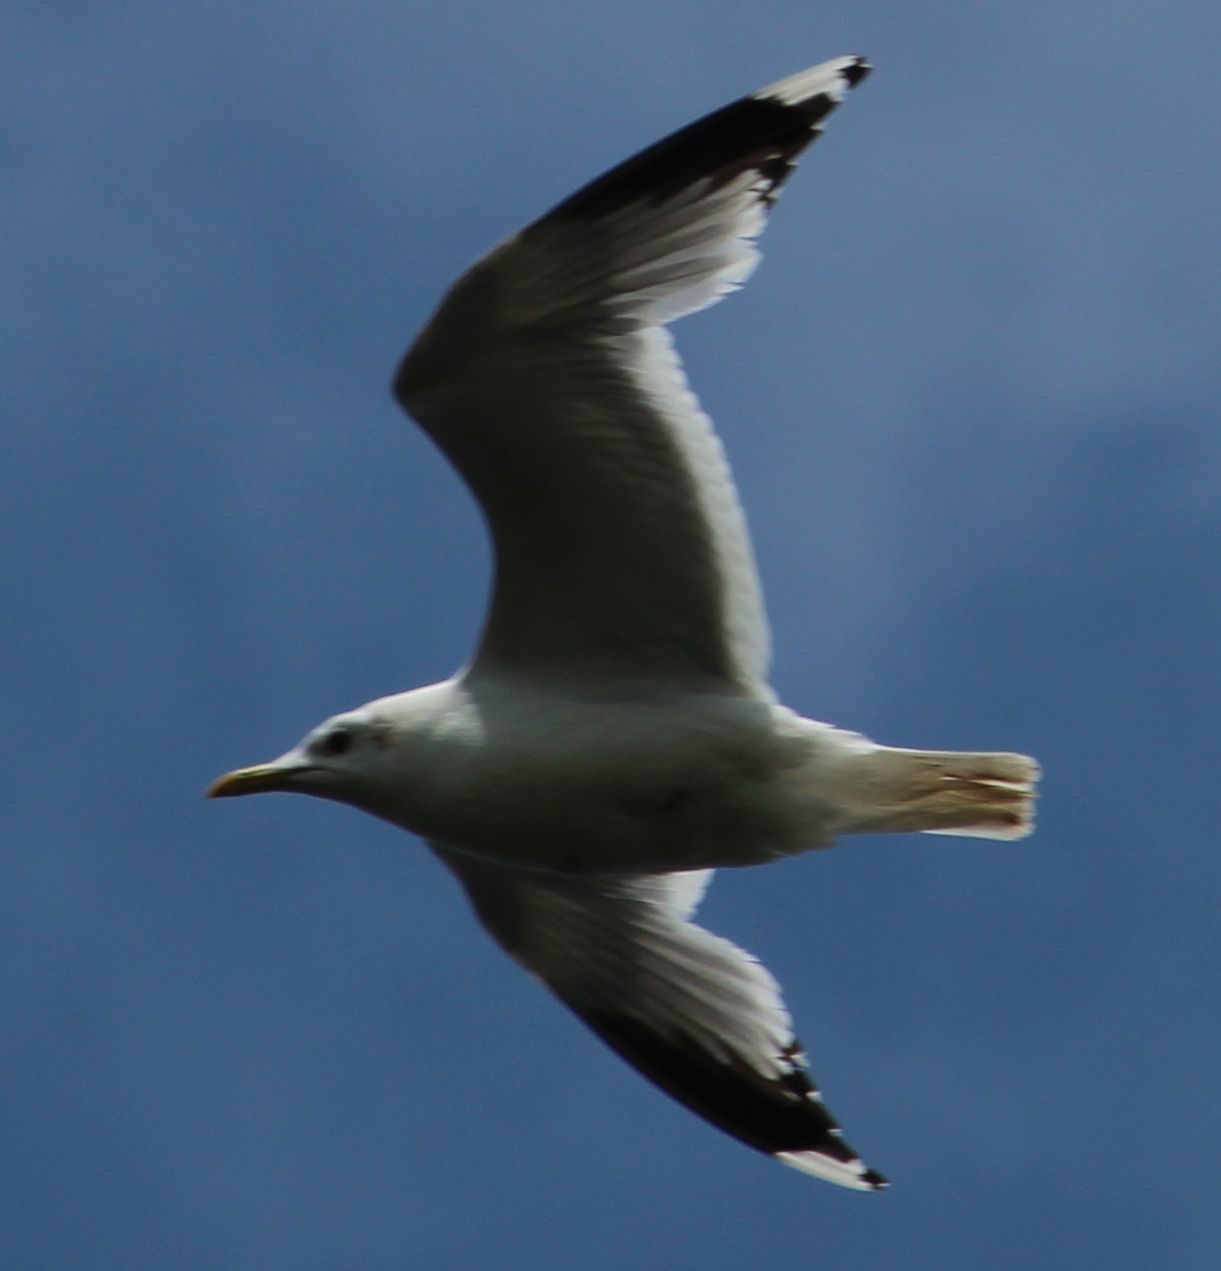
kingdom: Animalia
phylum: Chordata
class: Aves
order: Charadriiformes
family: Laridae
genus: Larus
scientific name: Larus canus
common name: Mew gull
